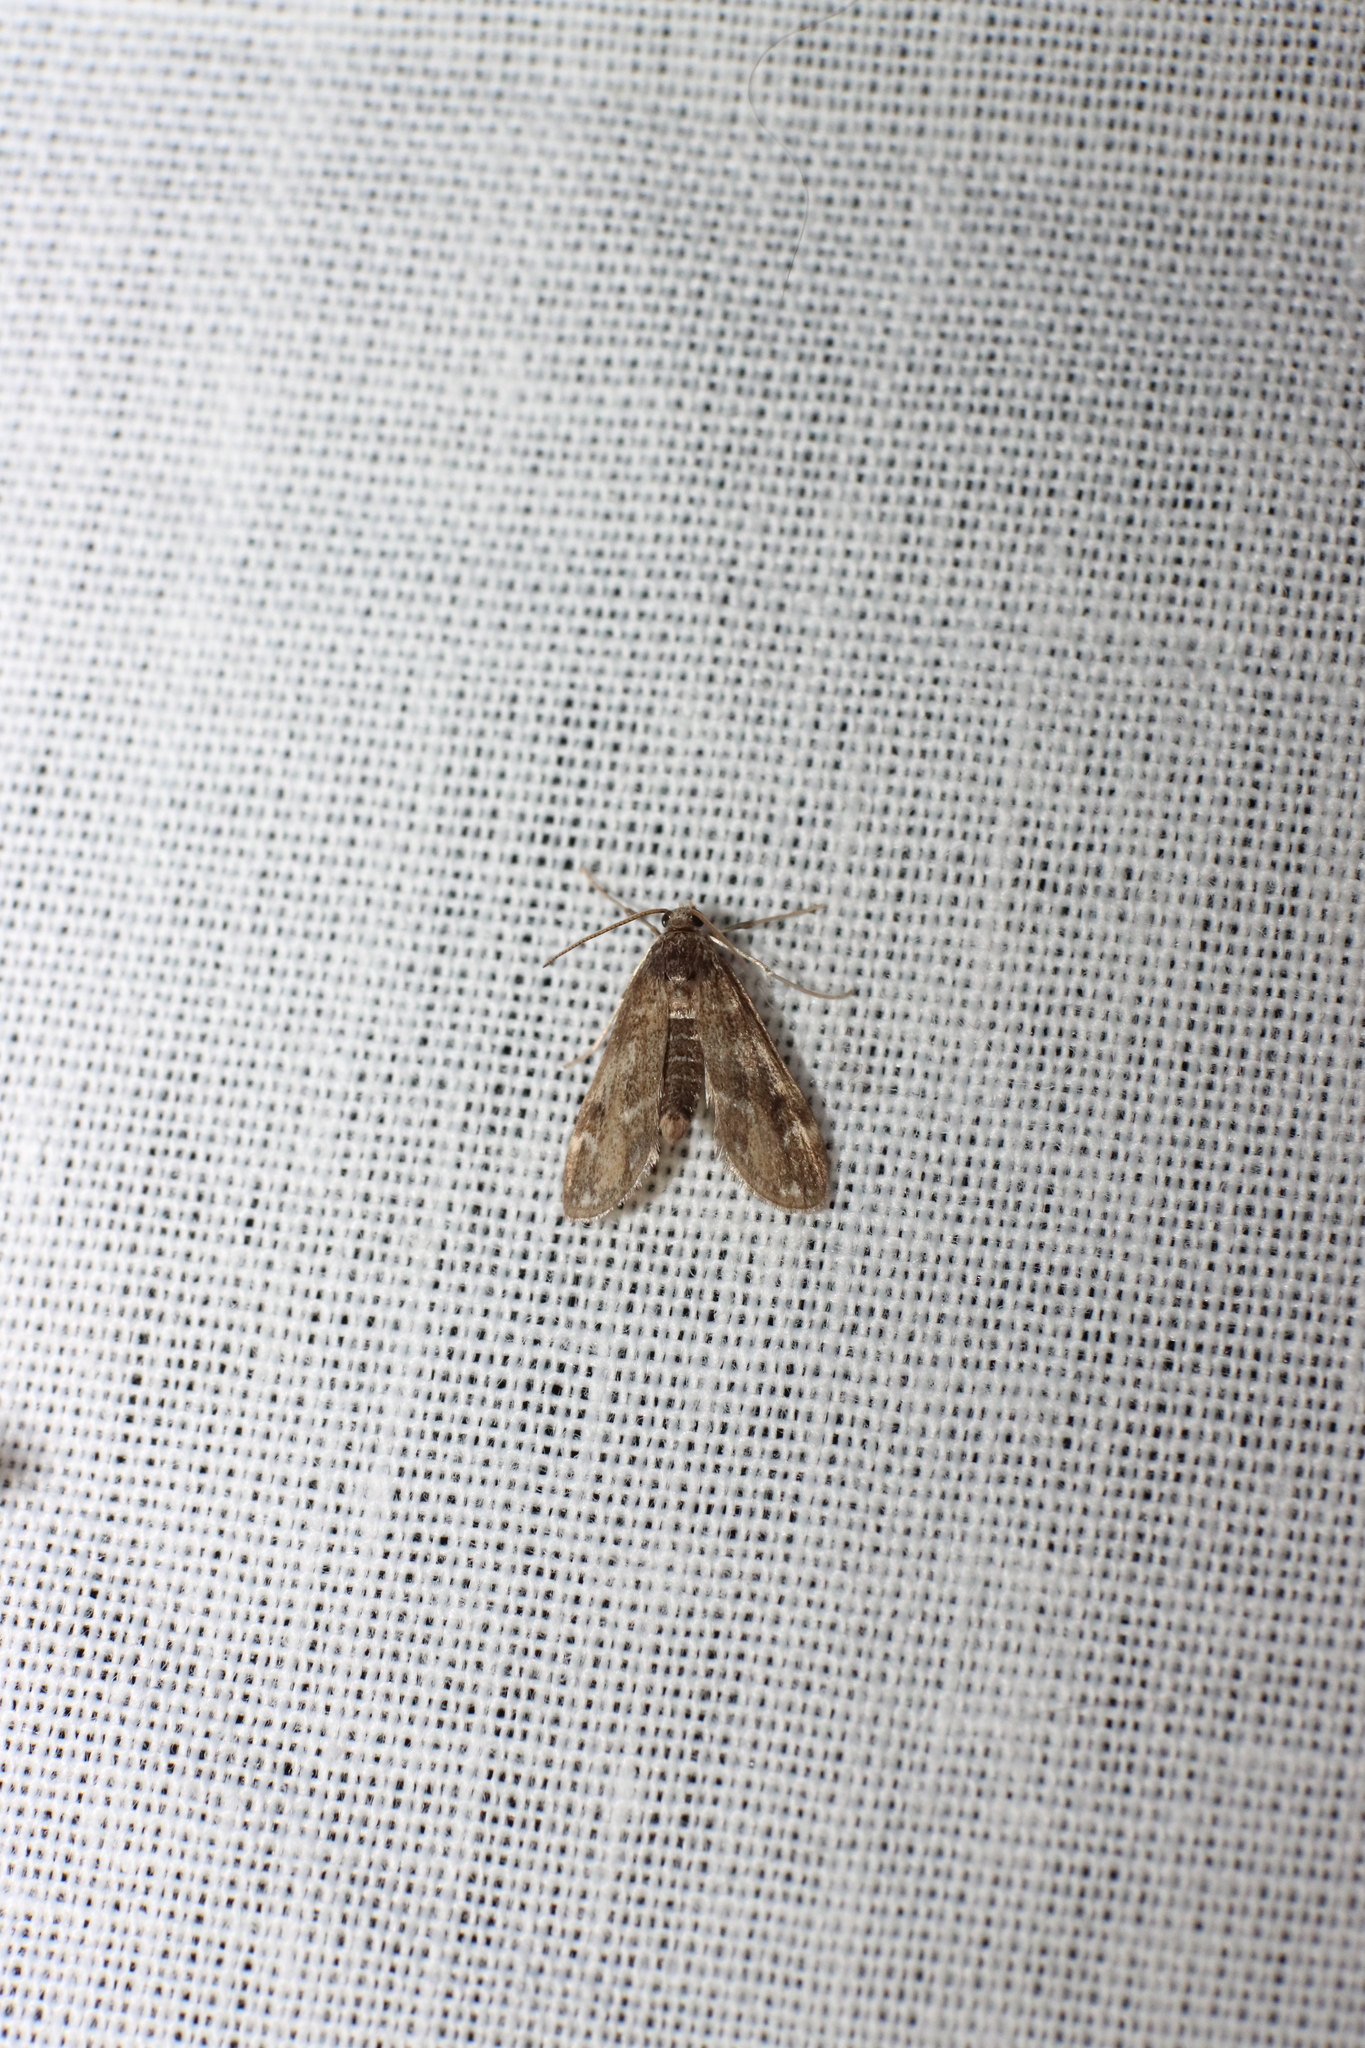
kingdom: Animalia
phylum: Arthropoda
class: Insecta
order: Lepidoptera
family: Crambidae
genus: Hygraula
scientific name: Hygraula nitens
